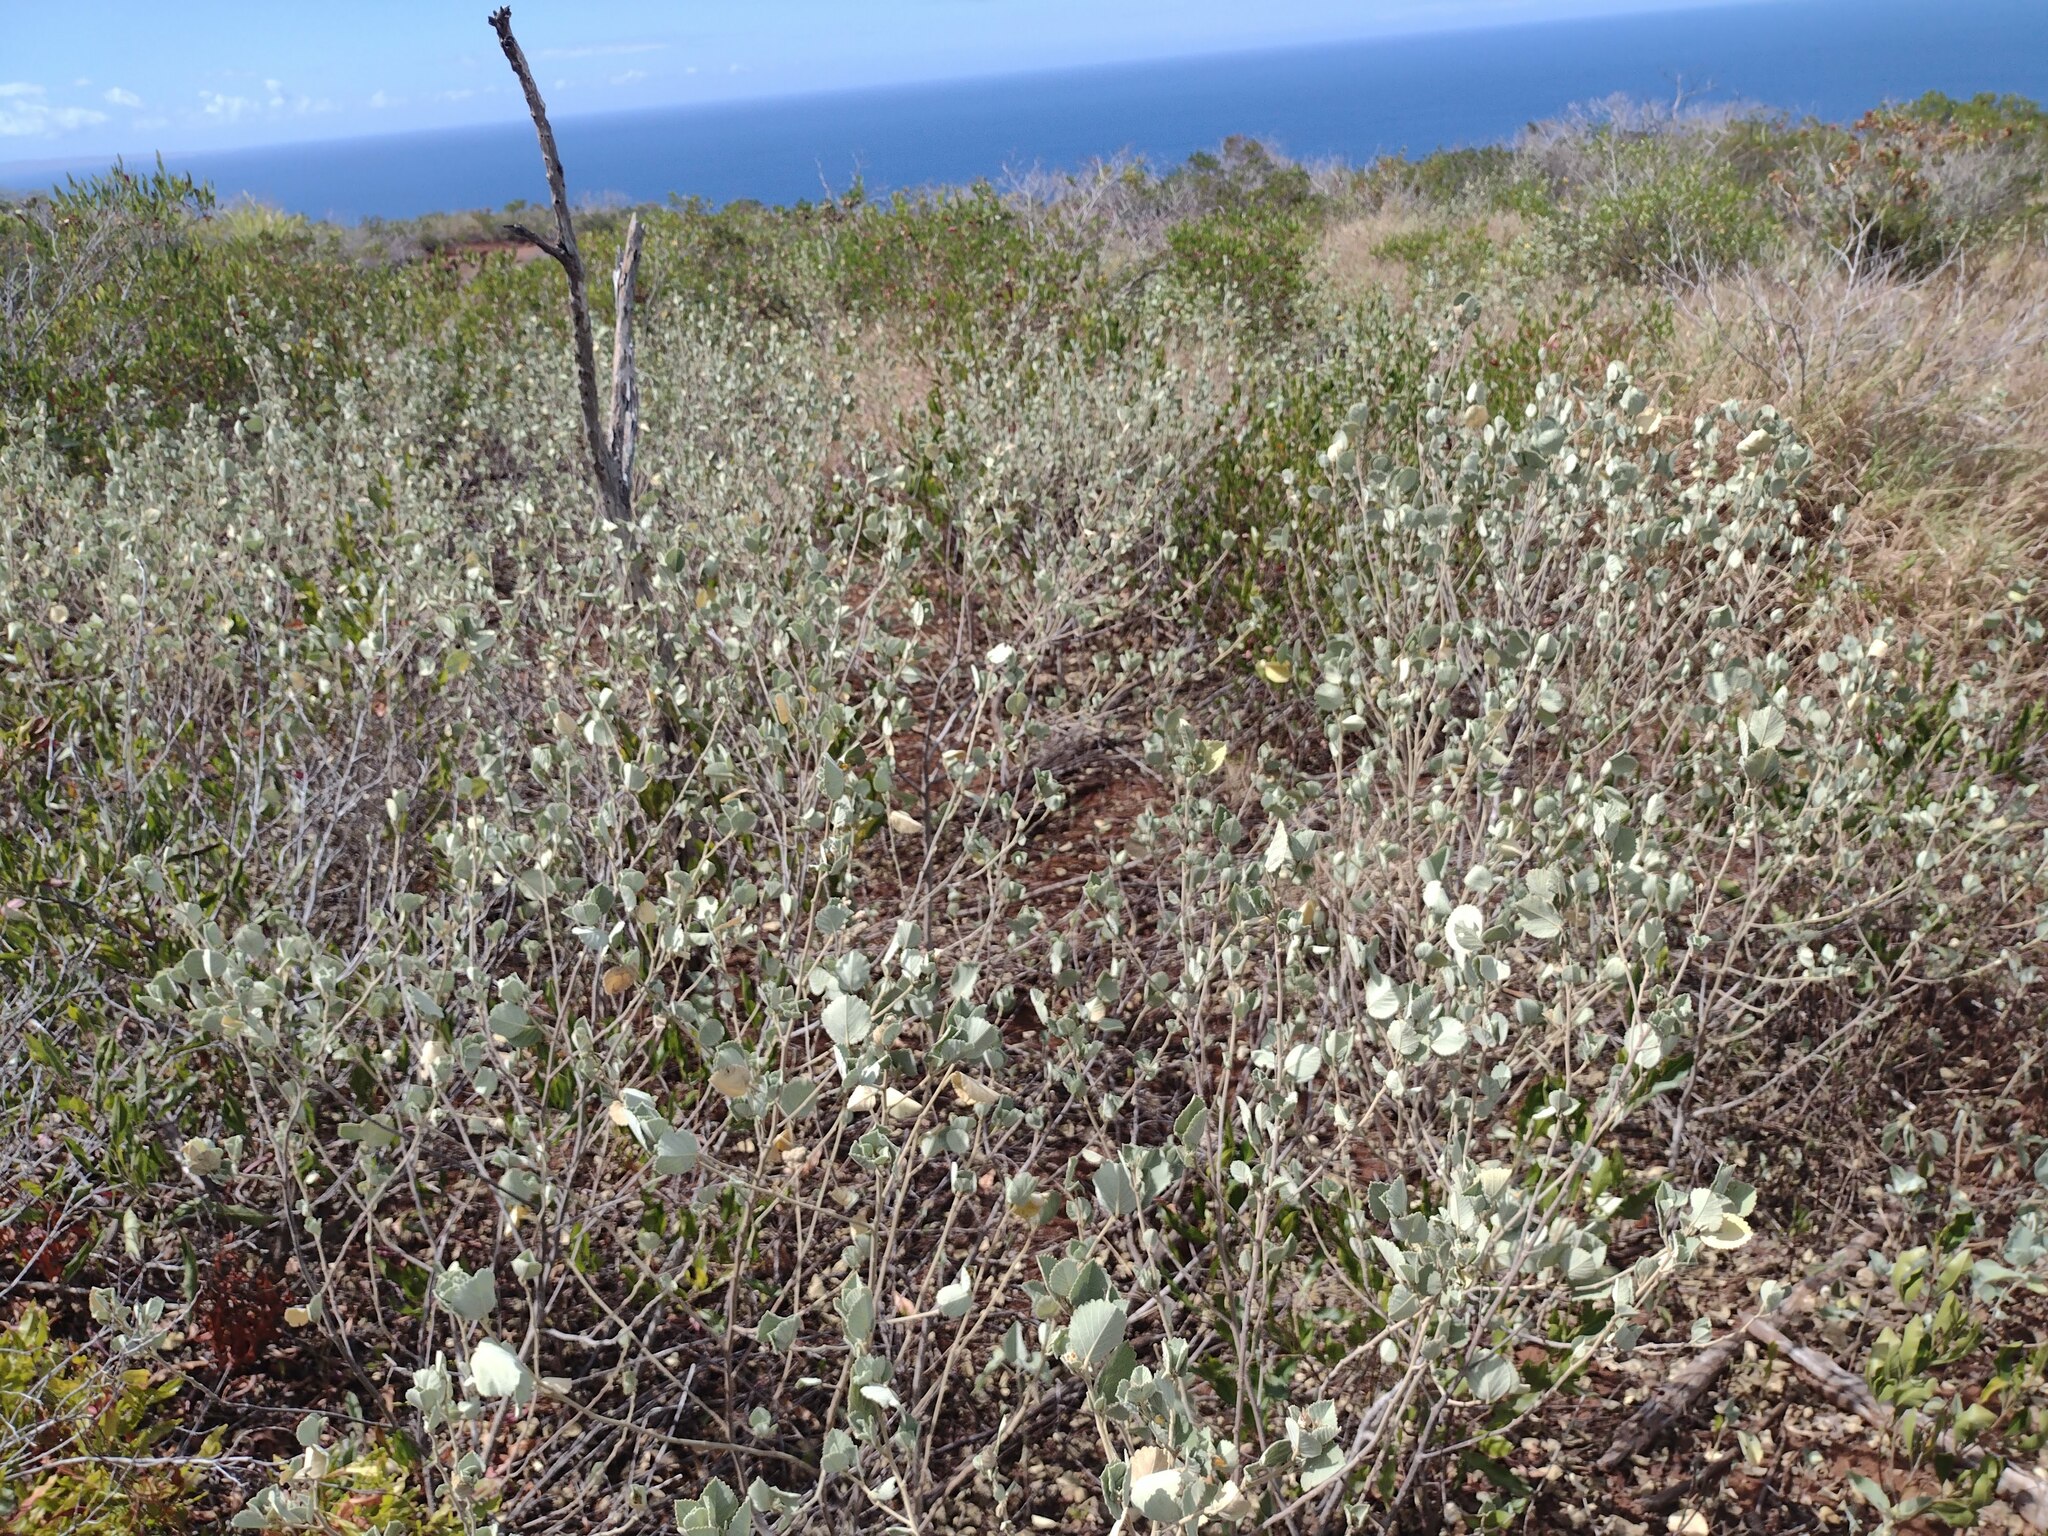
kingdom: Plantae
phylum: Tracheophyta
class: Magnoliopsida
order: Malvales
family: Malvaceae
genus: Sida
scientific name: Sida fallax
